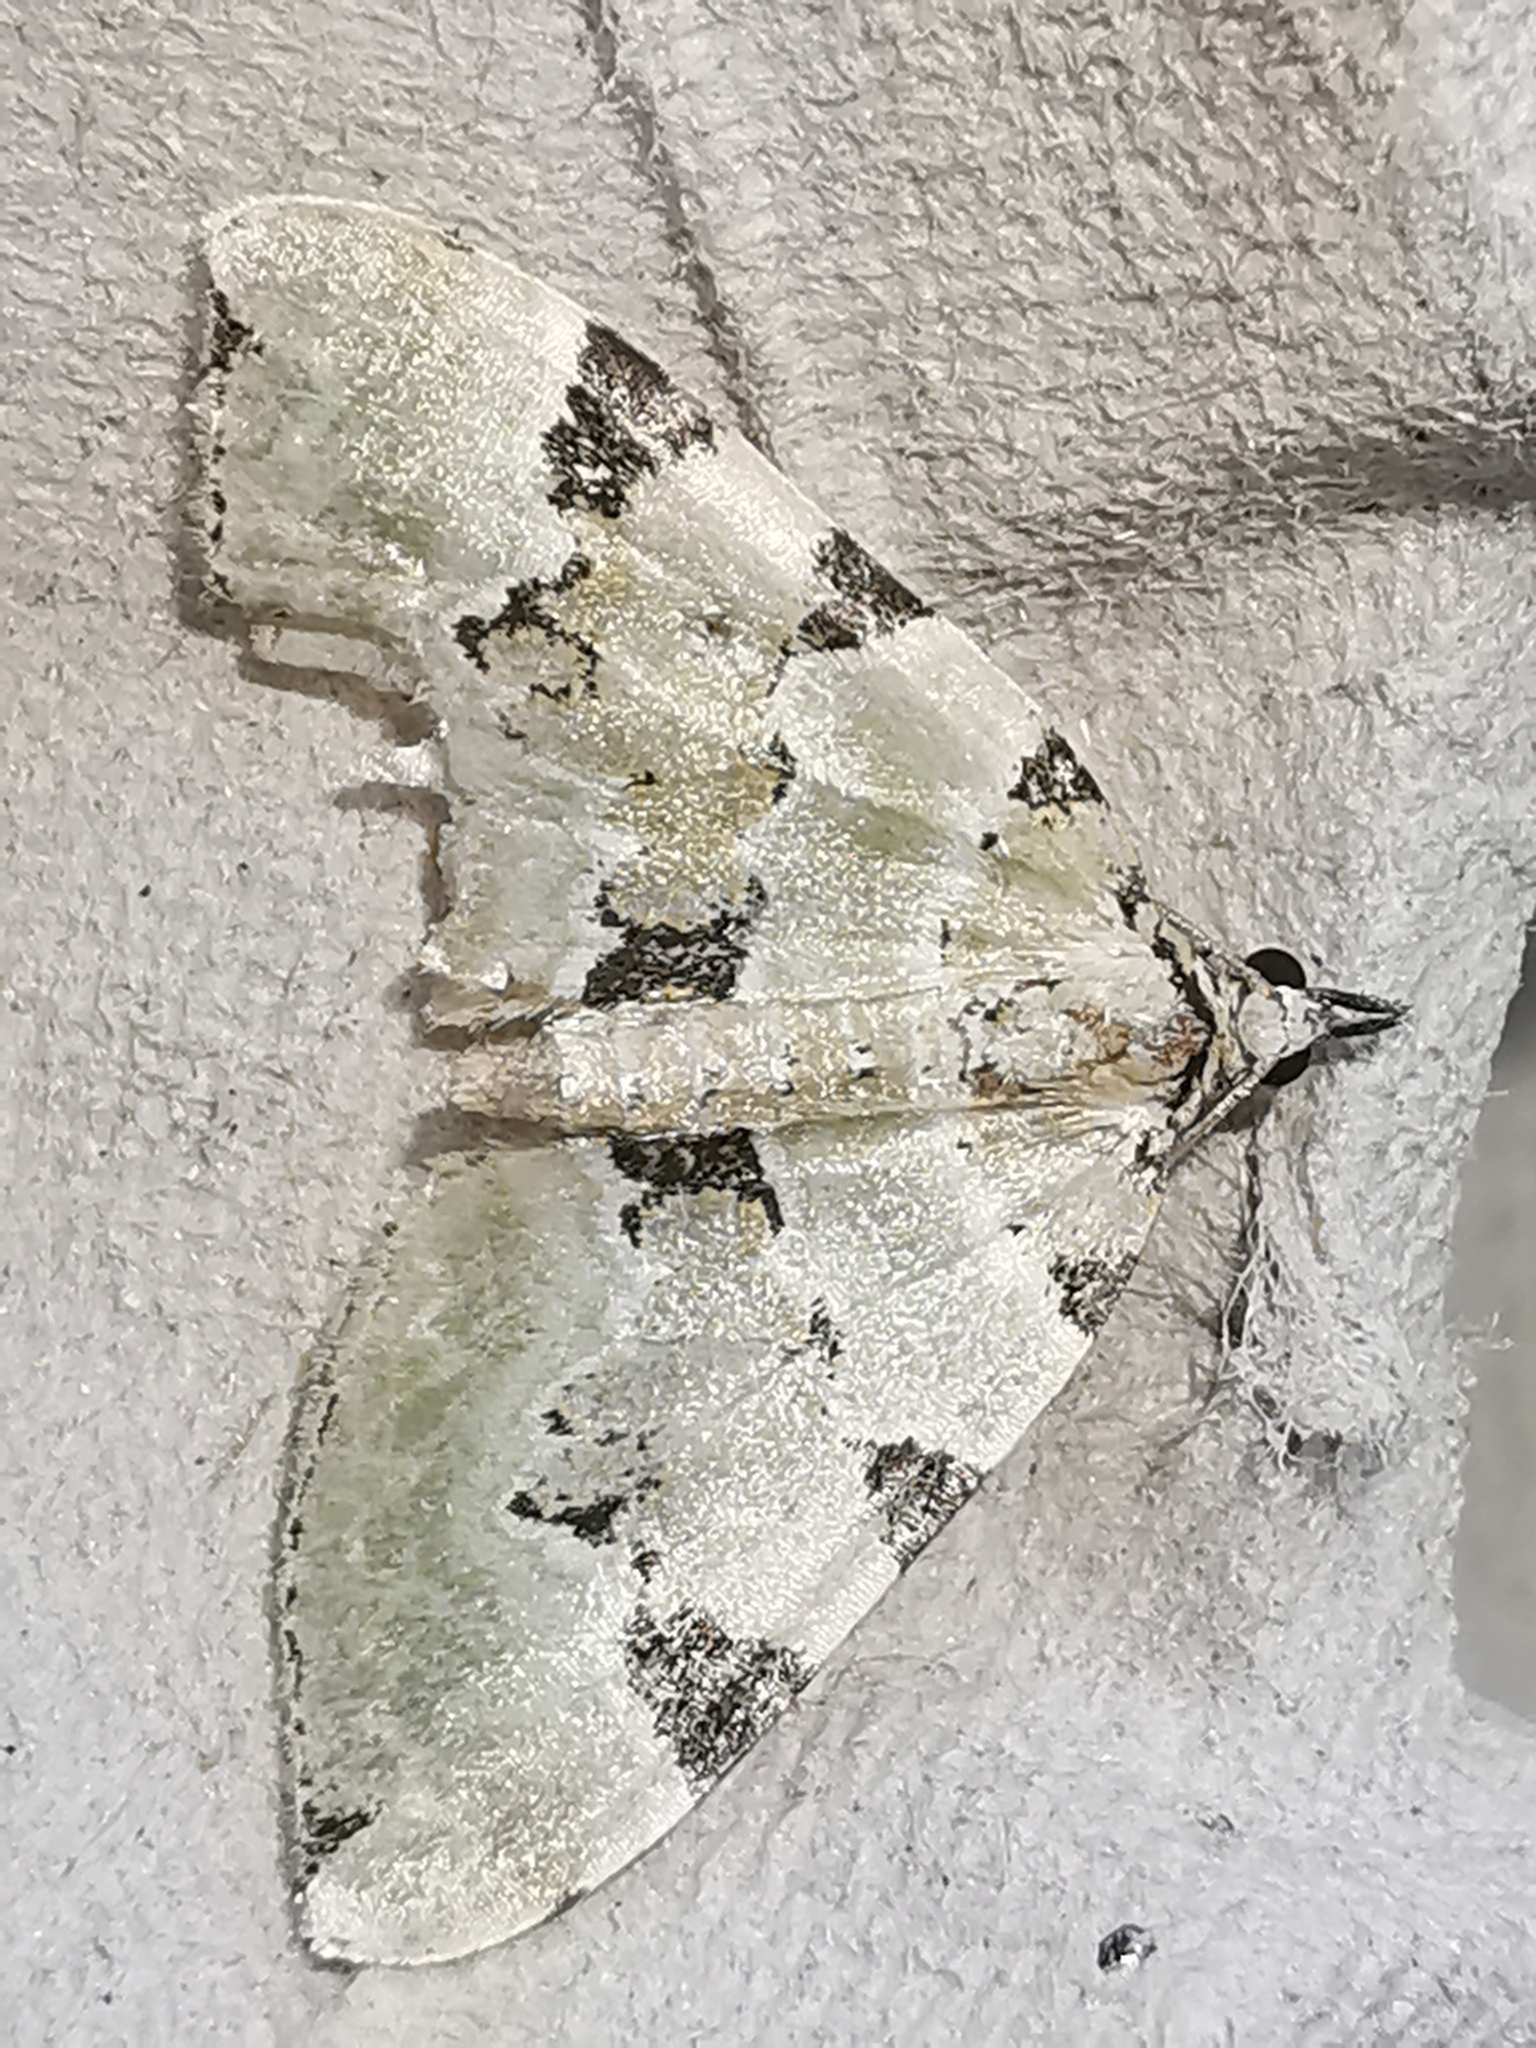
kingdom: Animalia
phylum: Arthropoda
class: Insecta
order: Lepidoptera
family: Geometridae
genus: Colostygia
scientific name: Colostygia pectinataria
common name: Green carpet
